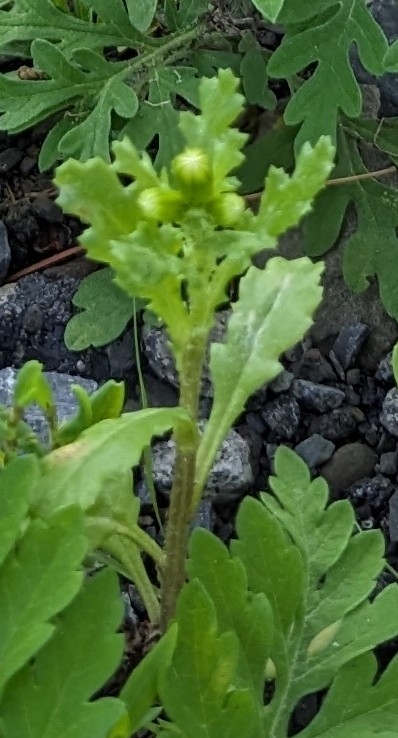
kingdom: Plantae
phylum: Tracheophyta
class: Magnoliopsida
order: Asterales
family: Asteraceae
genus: Senecio
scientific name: Senecio vulgaris
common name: Old-man-in-the-spring
